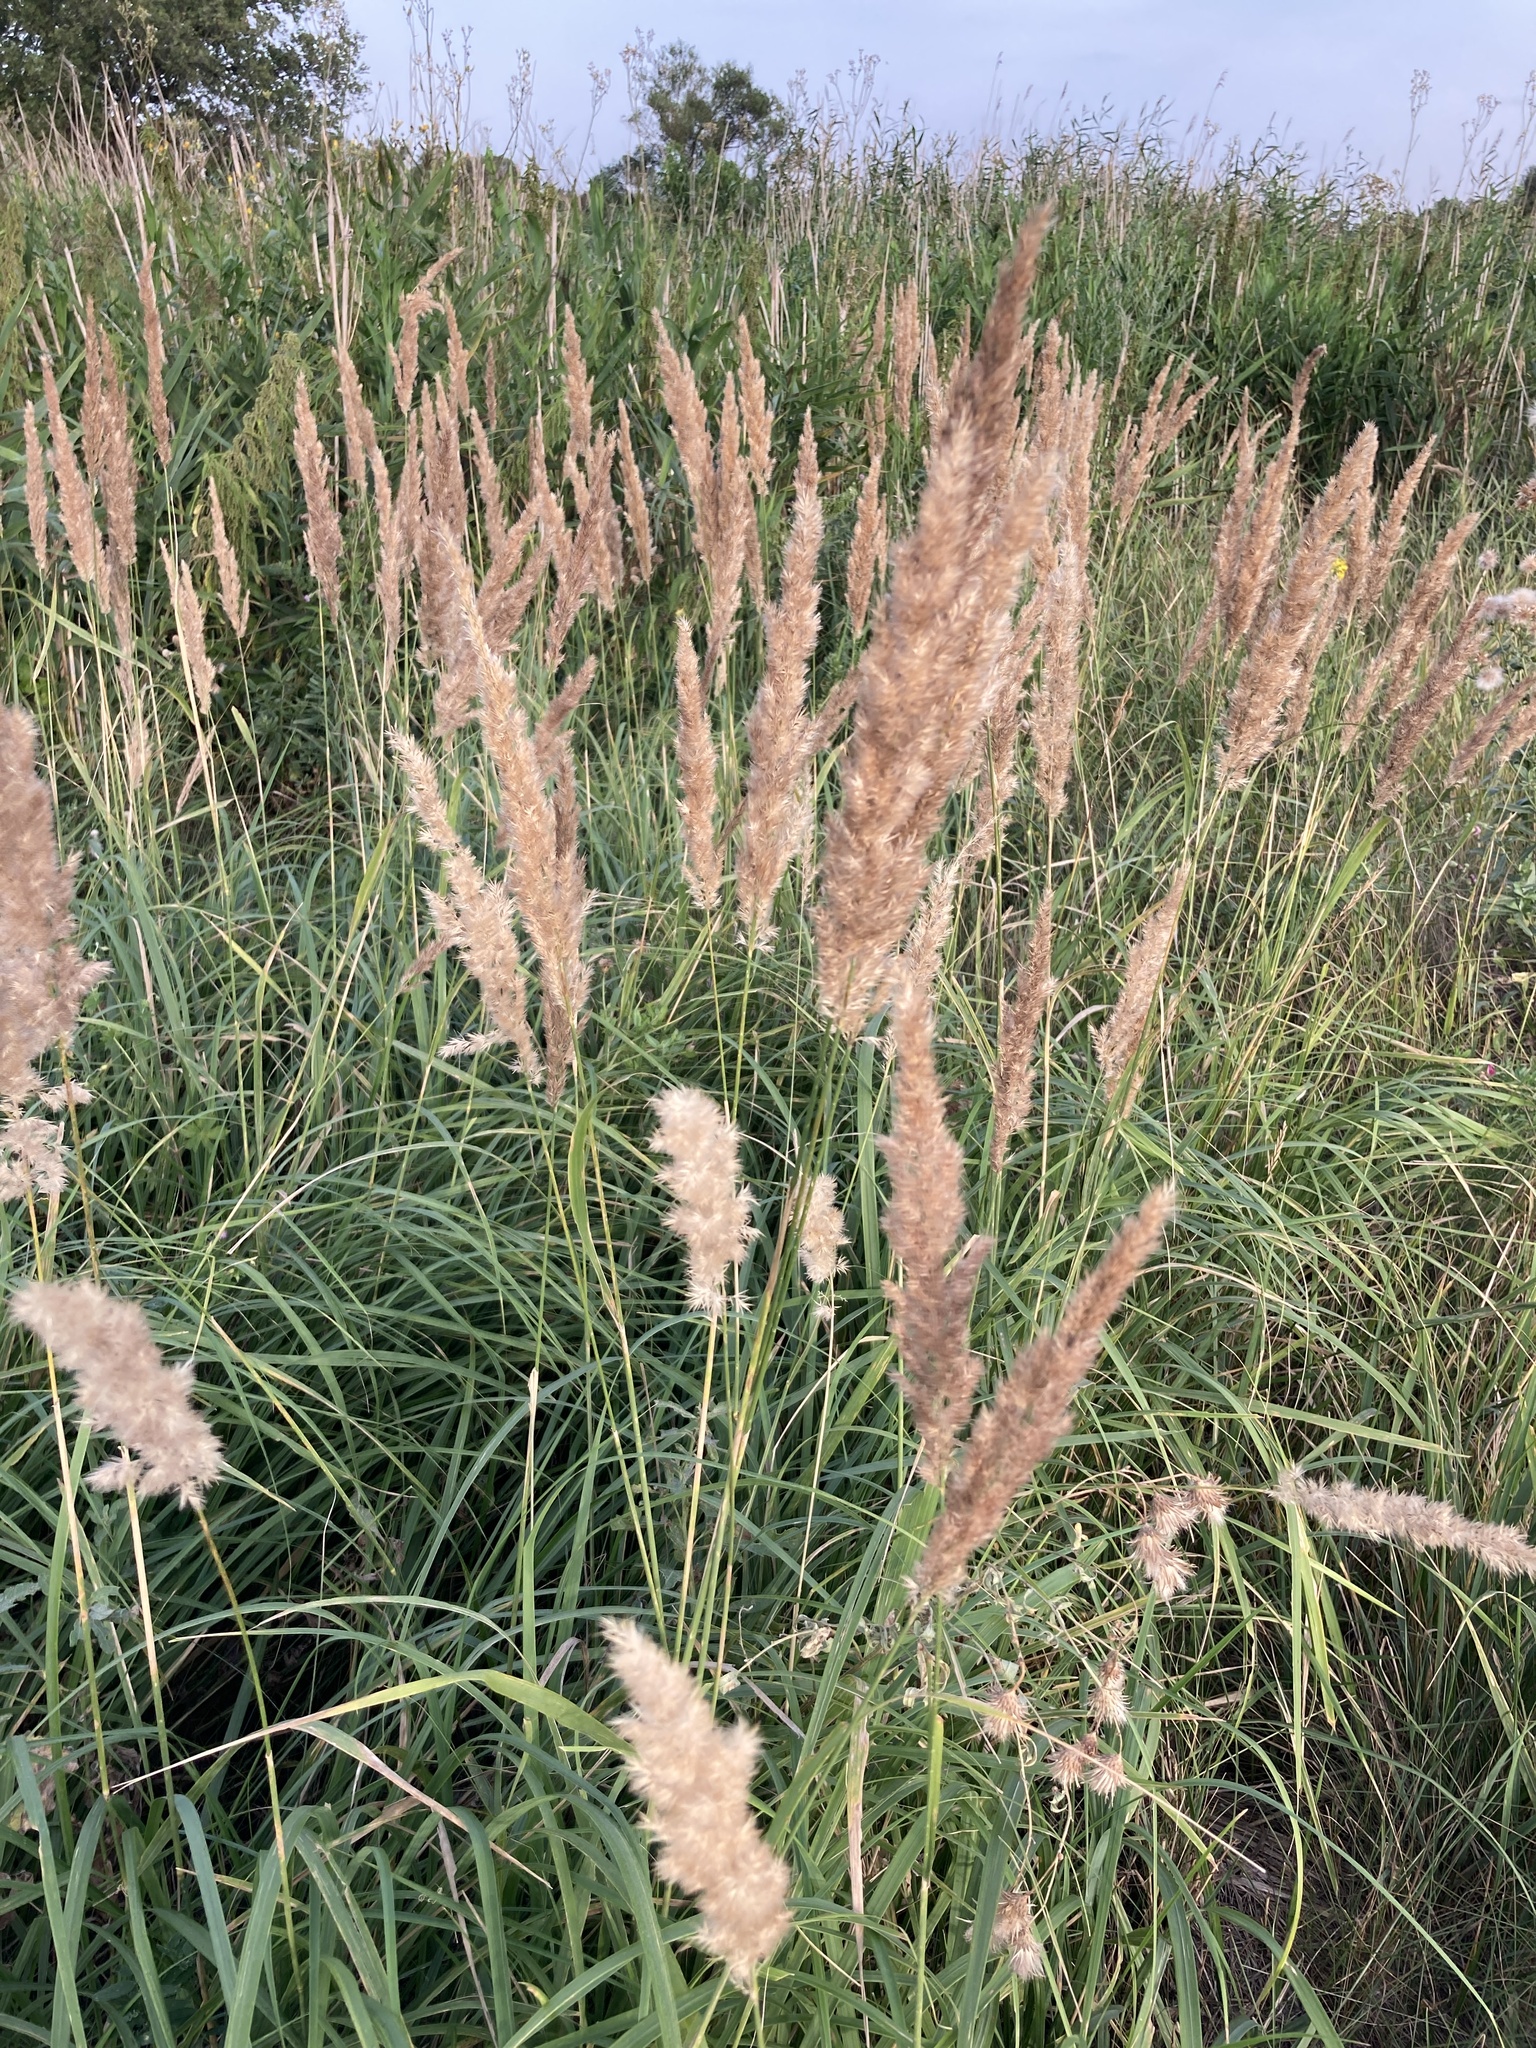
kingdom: Plantae
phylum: Tracheophyta
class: Liliopsida
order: Poales
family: Poaceae
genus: Calamagrostis
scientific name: Calamagrostis epigejos
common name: Wood small-reed
